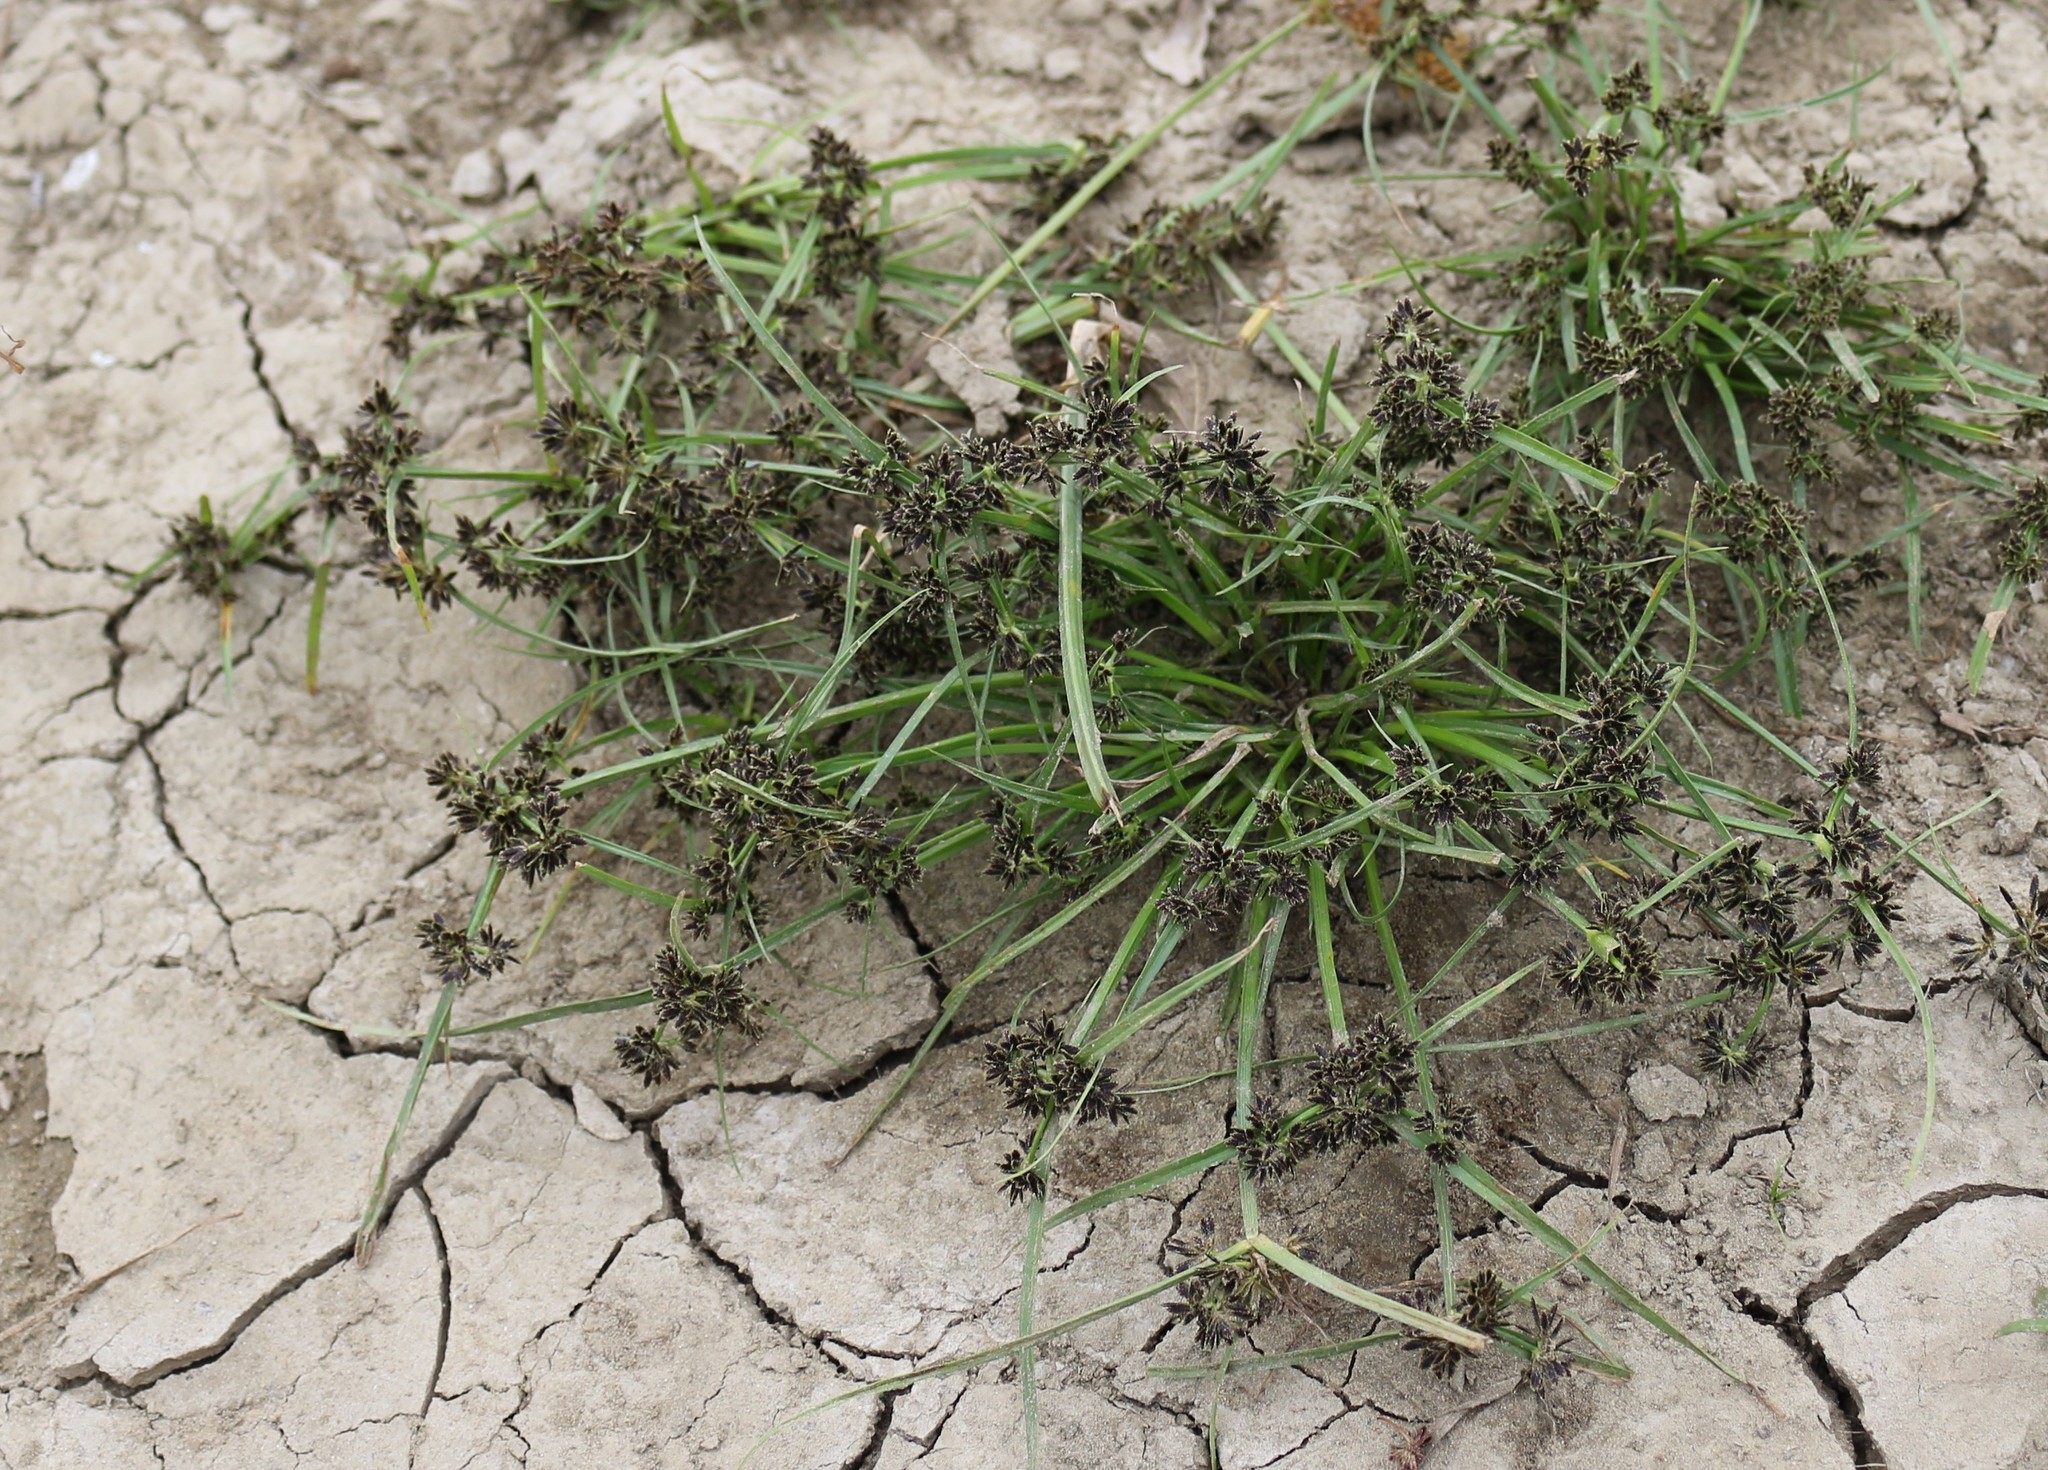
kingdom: Plantae
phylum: Tracheophyta
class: Liliopsida
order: Poales
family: Cyperaceae
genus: Cyperus
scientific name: Cyperus fuscus
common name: Brown galingale
